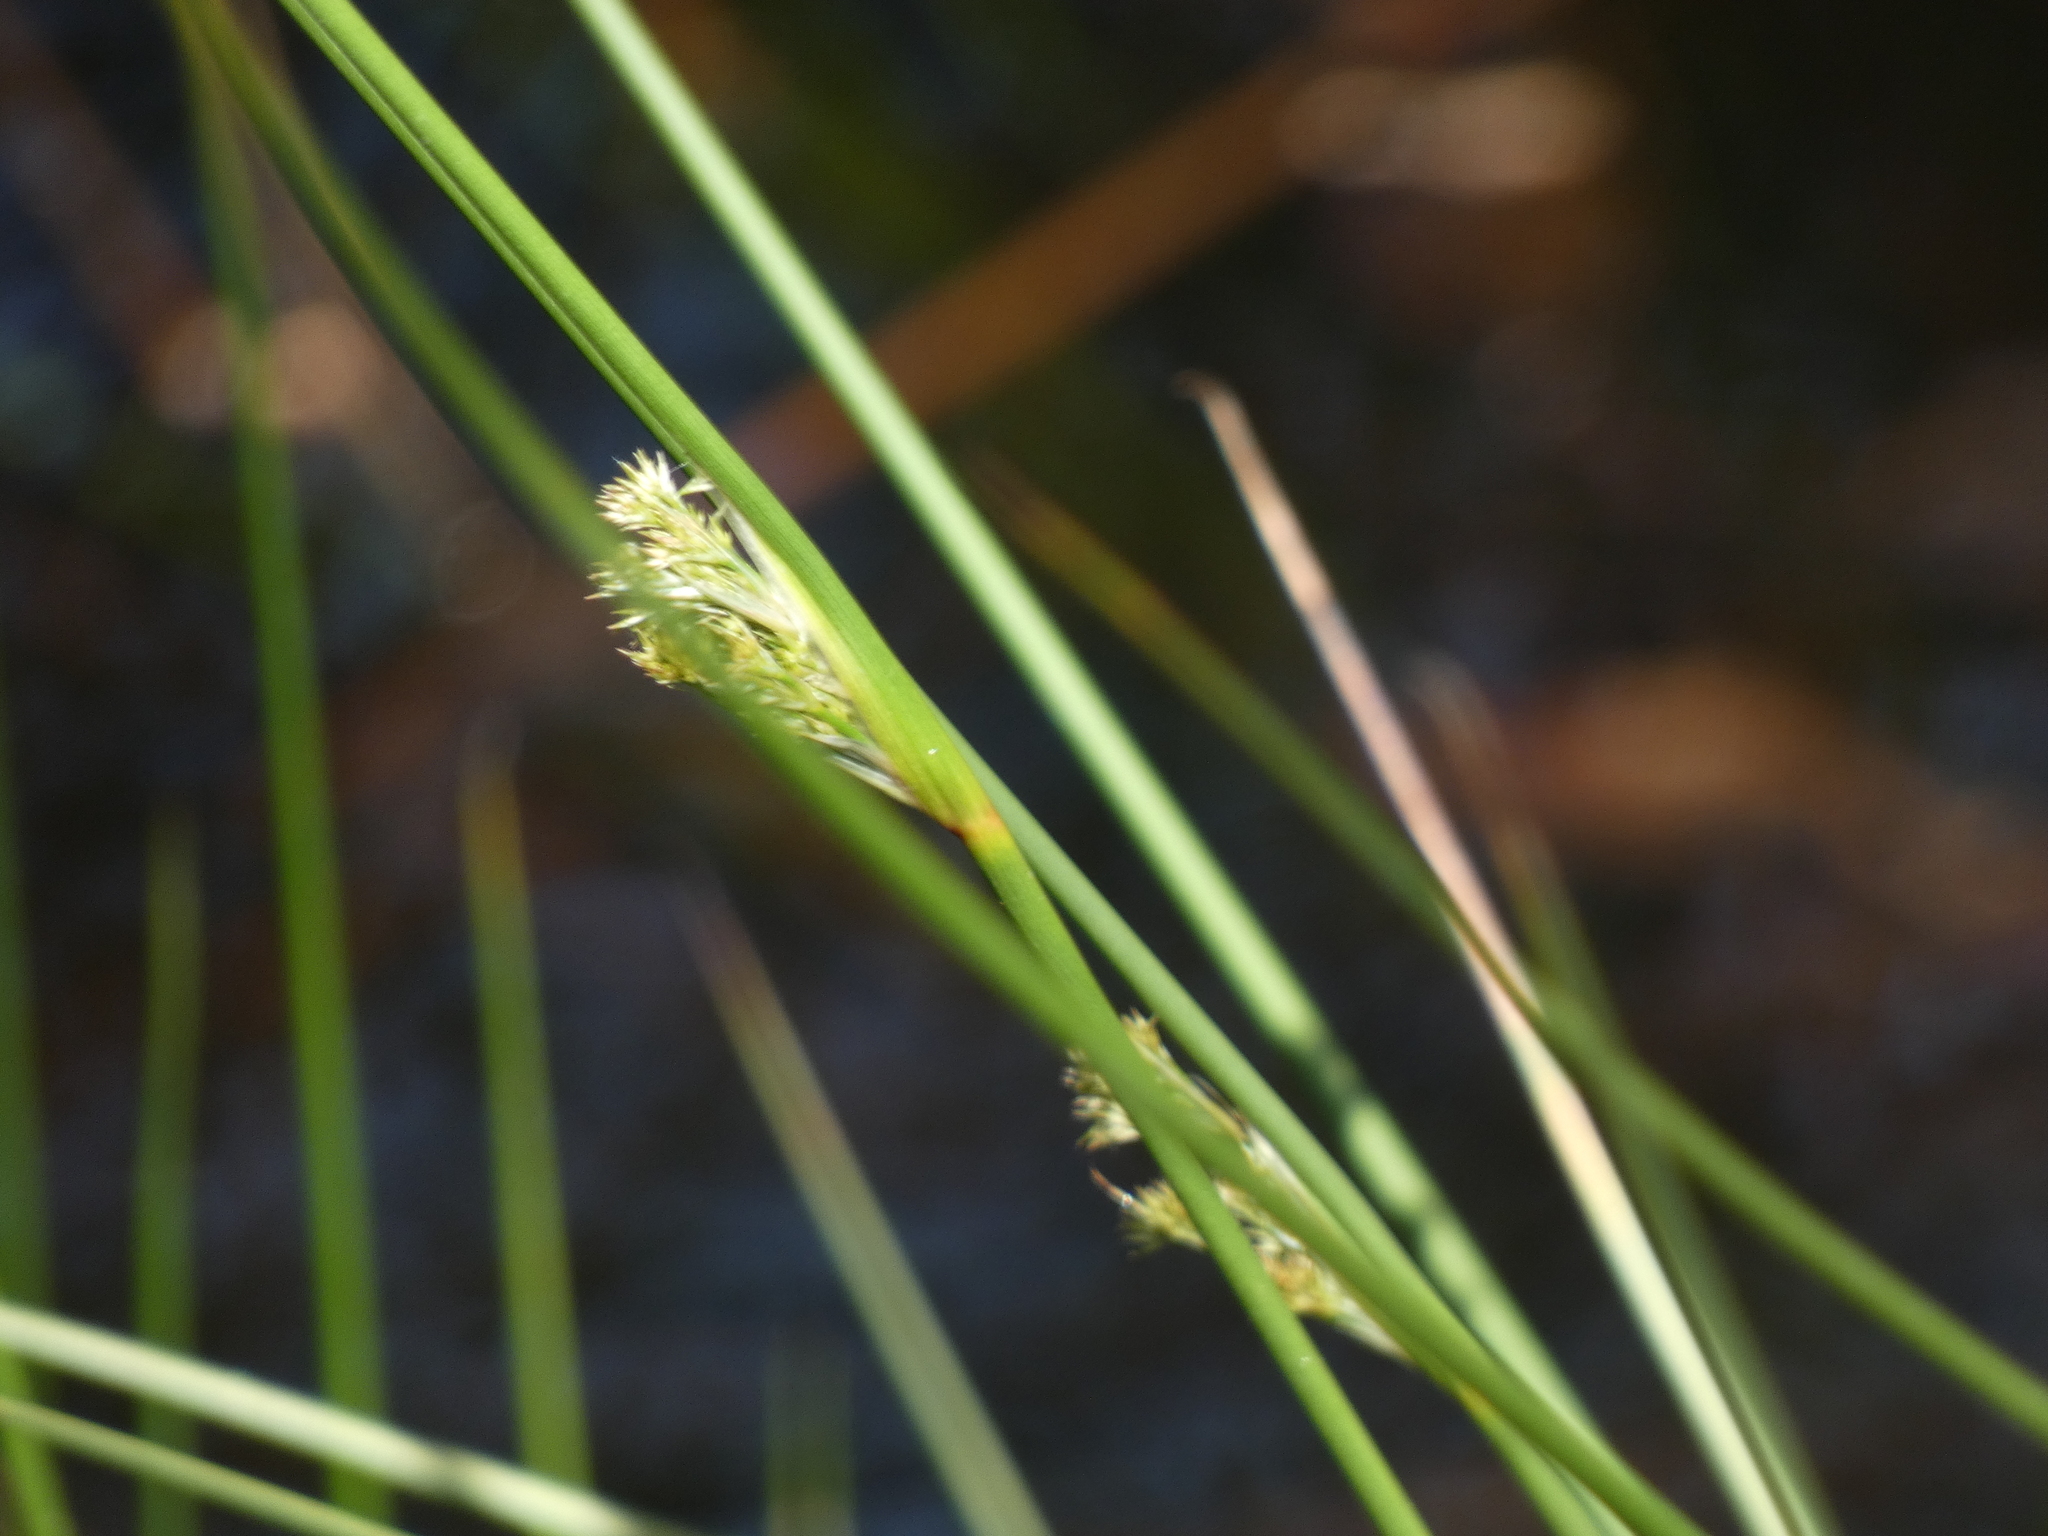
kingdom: Plantae
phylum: Tracheophyta
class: Liliopsida
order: Poales
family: Juncaceae
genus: Juncus
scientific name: Juncus effusus
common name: Soft rush
